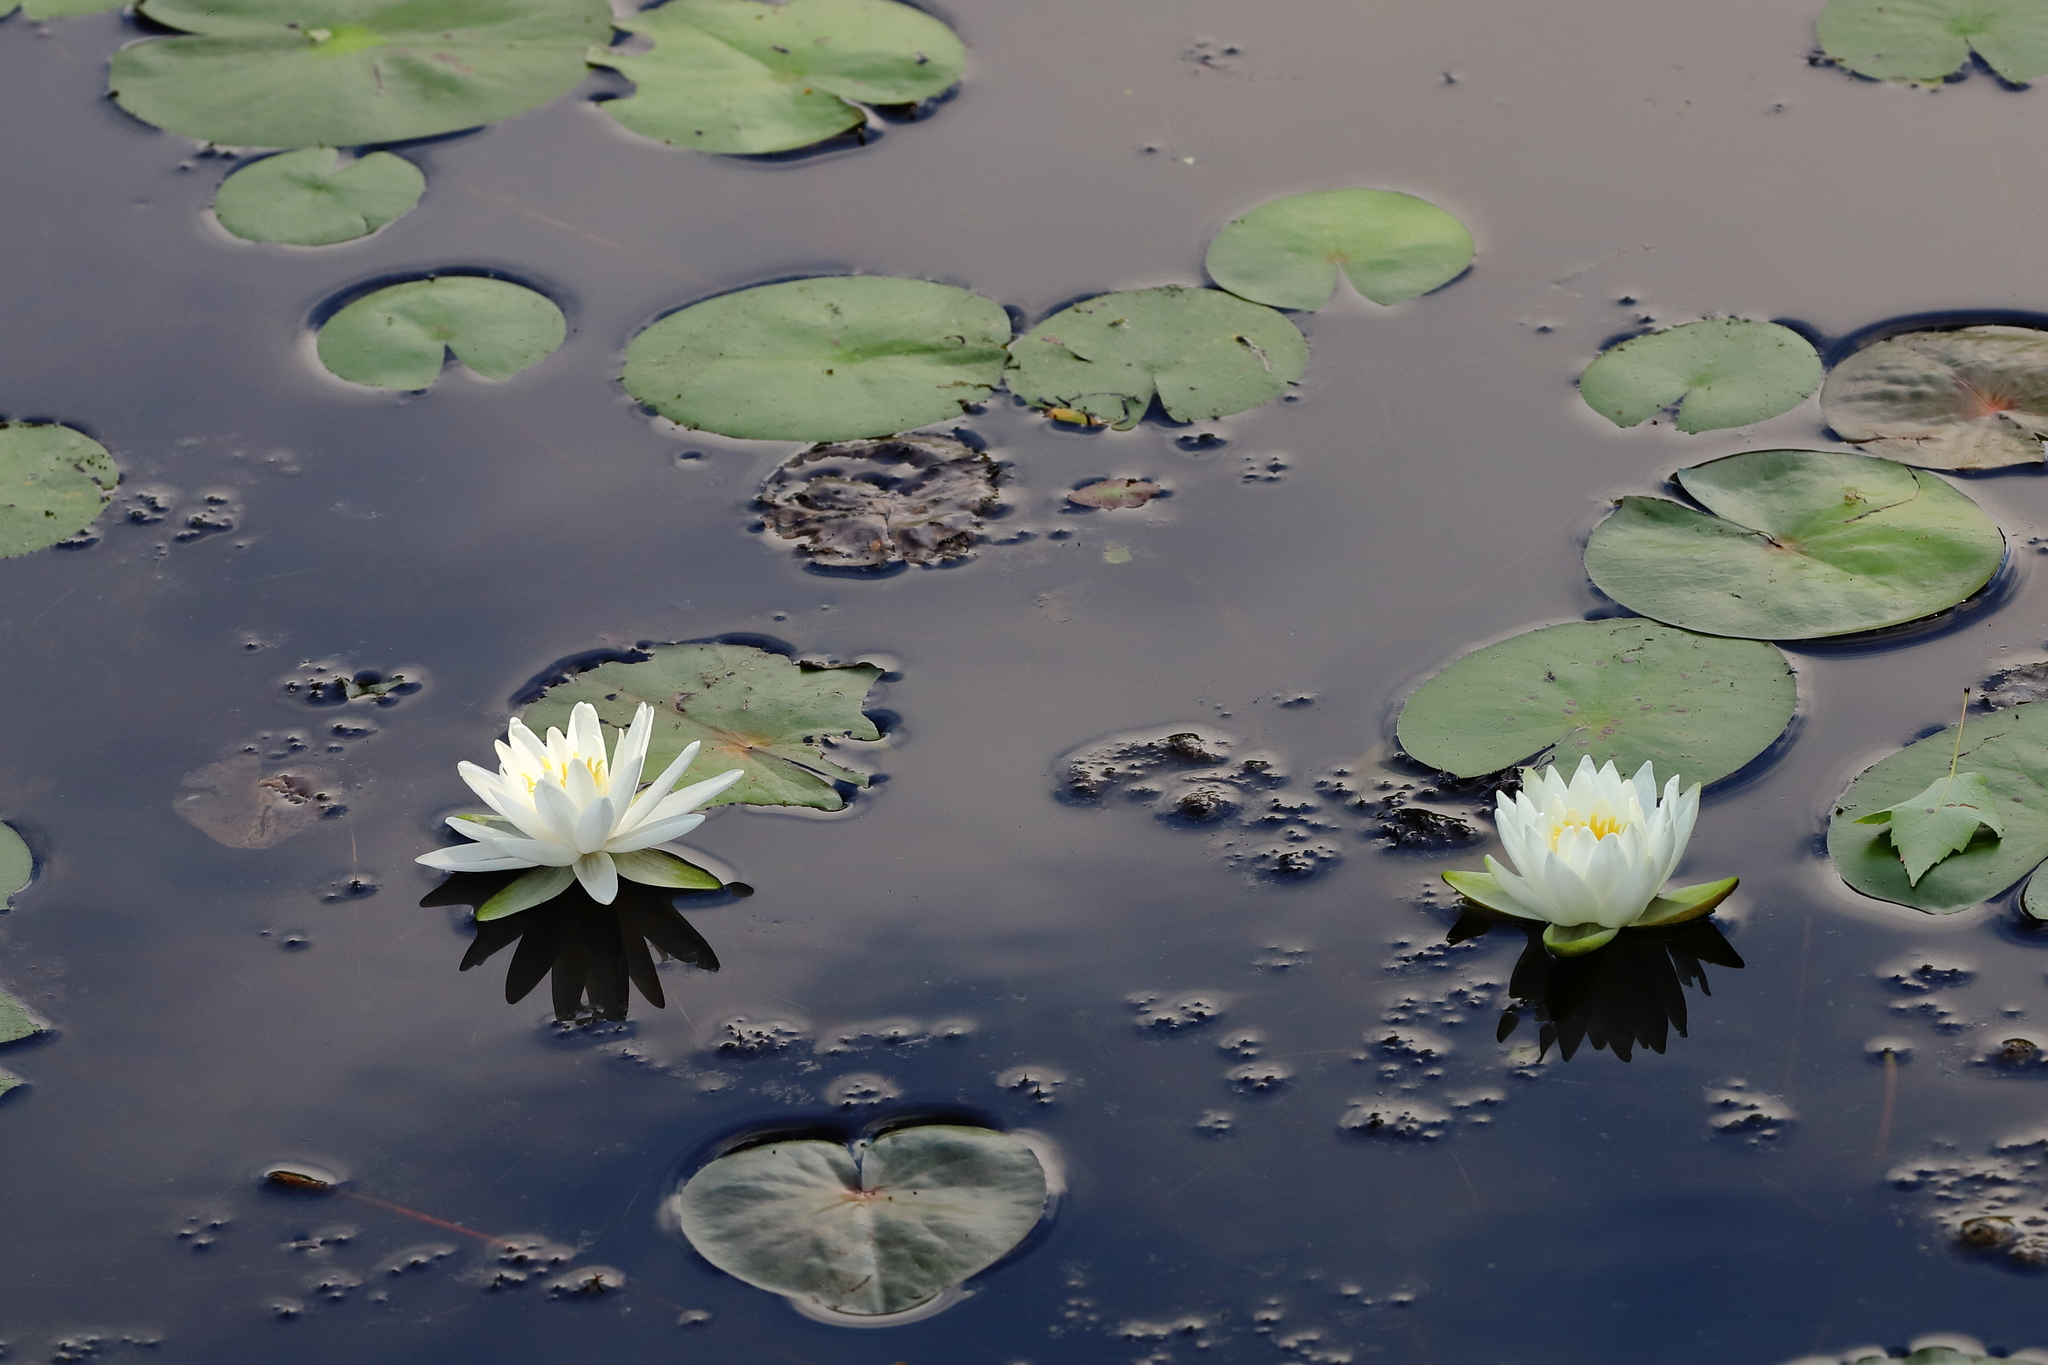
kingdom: Plantae
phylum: Tracheophyta
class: Magnoliopsida
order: Nymphaeales
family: Nymphaeaceae
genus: Nymphaea
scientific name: Nymphaea odorata
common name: Fragrant water-lily
